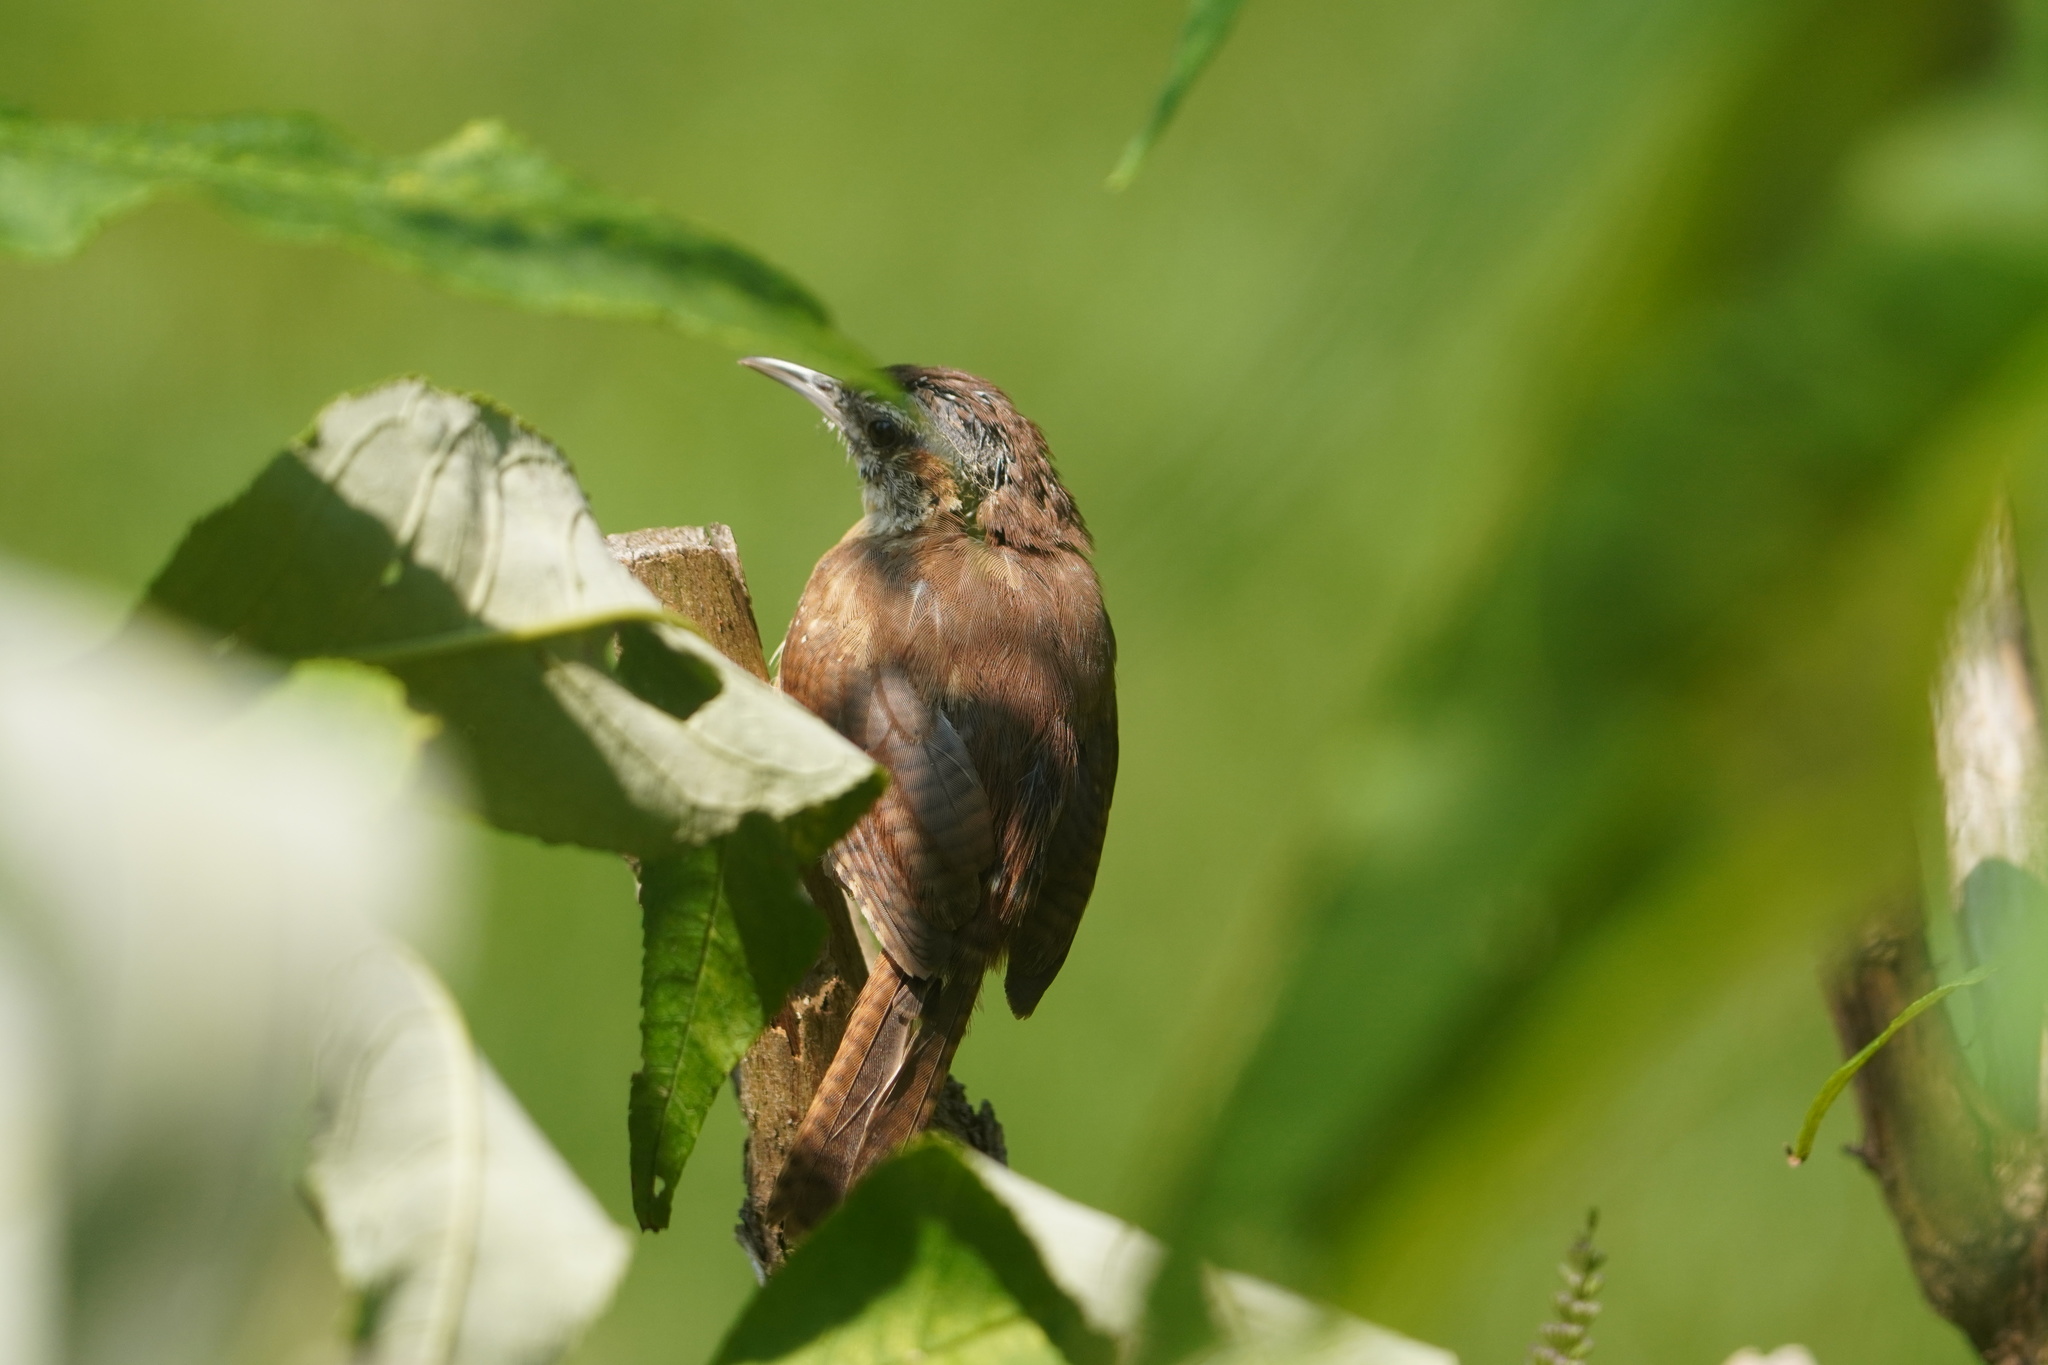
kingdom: Animalia
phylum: Chordata
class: Aves
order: Passeriformes
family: Troglodytidae
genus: Thryothorus
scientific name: Thryothorus ludovicianus
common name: Carolina wren
